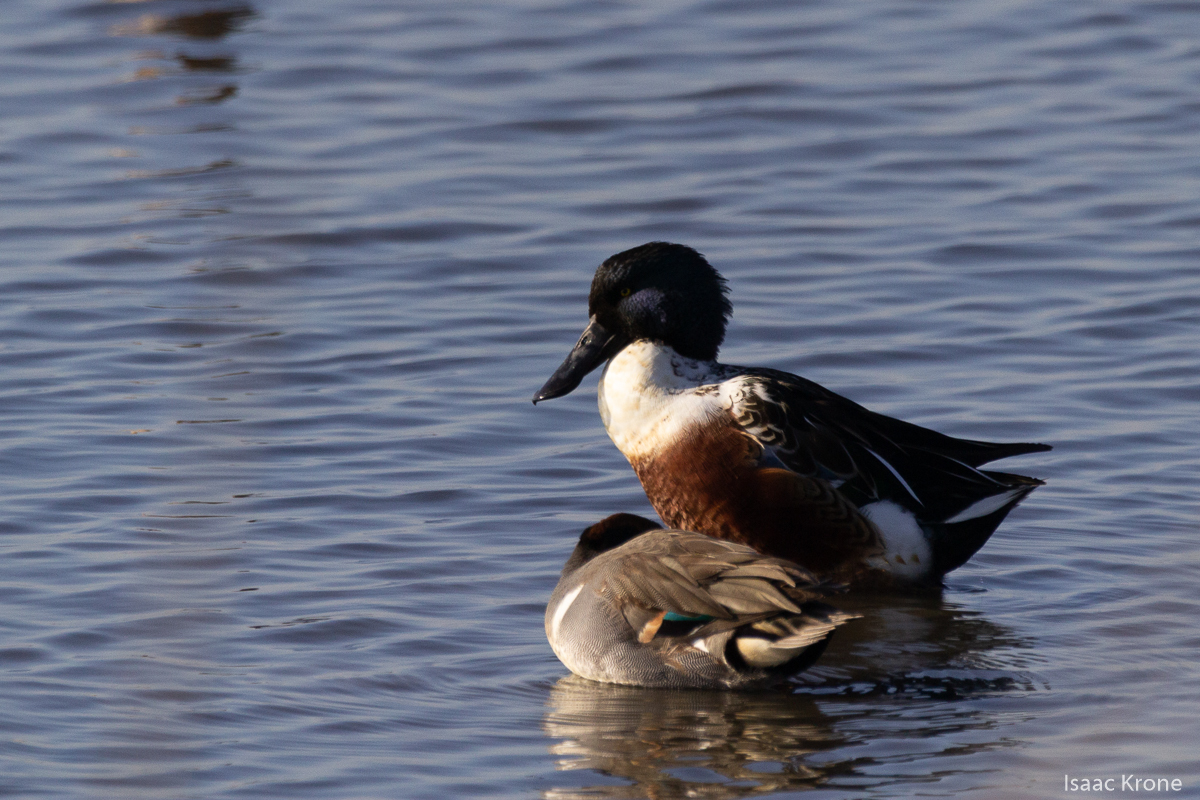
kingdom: Animalia
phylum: Chordata
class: Aves
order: Anseriformes
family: Anatidae
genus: Spatula
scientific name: Spatula clypeata
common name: Northern shoveler
